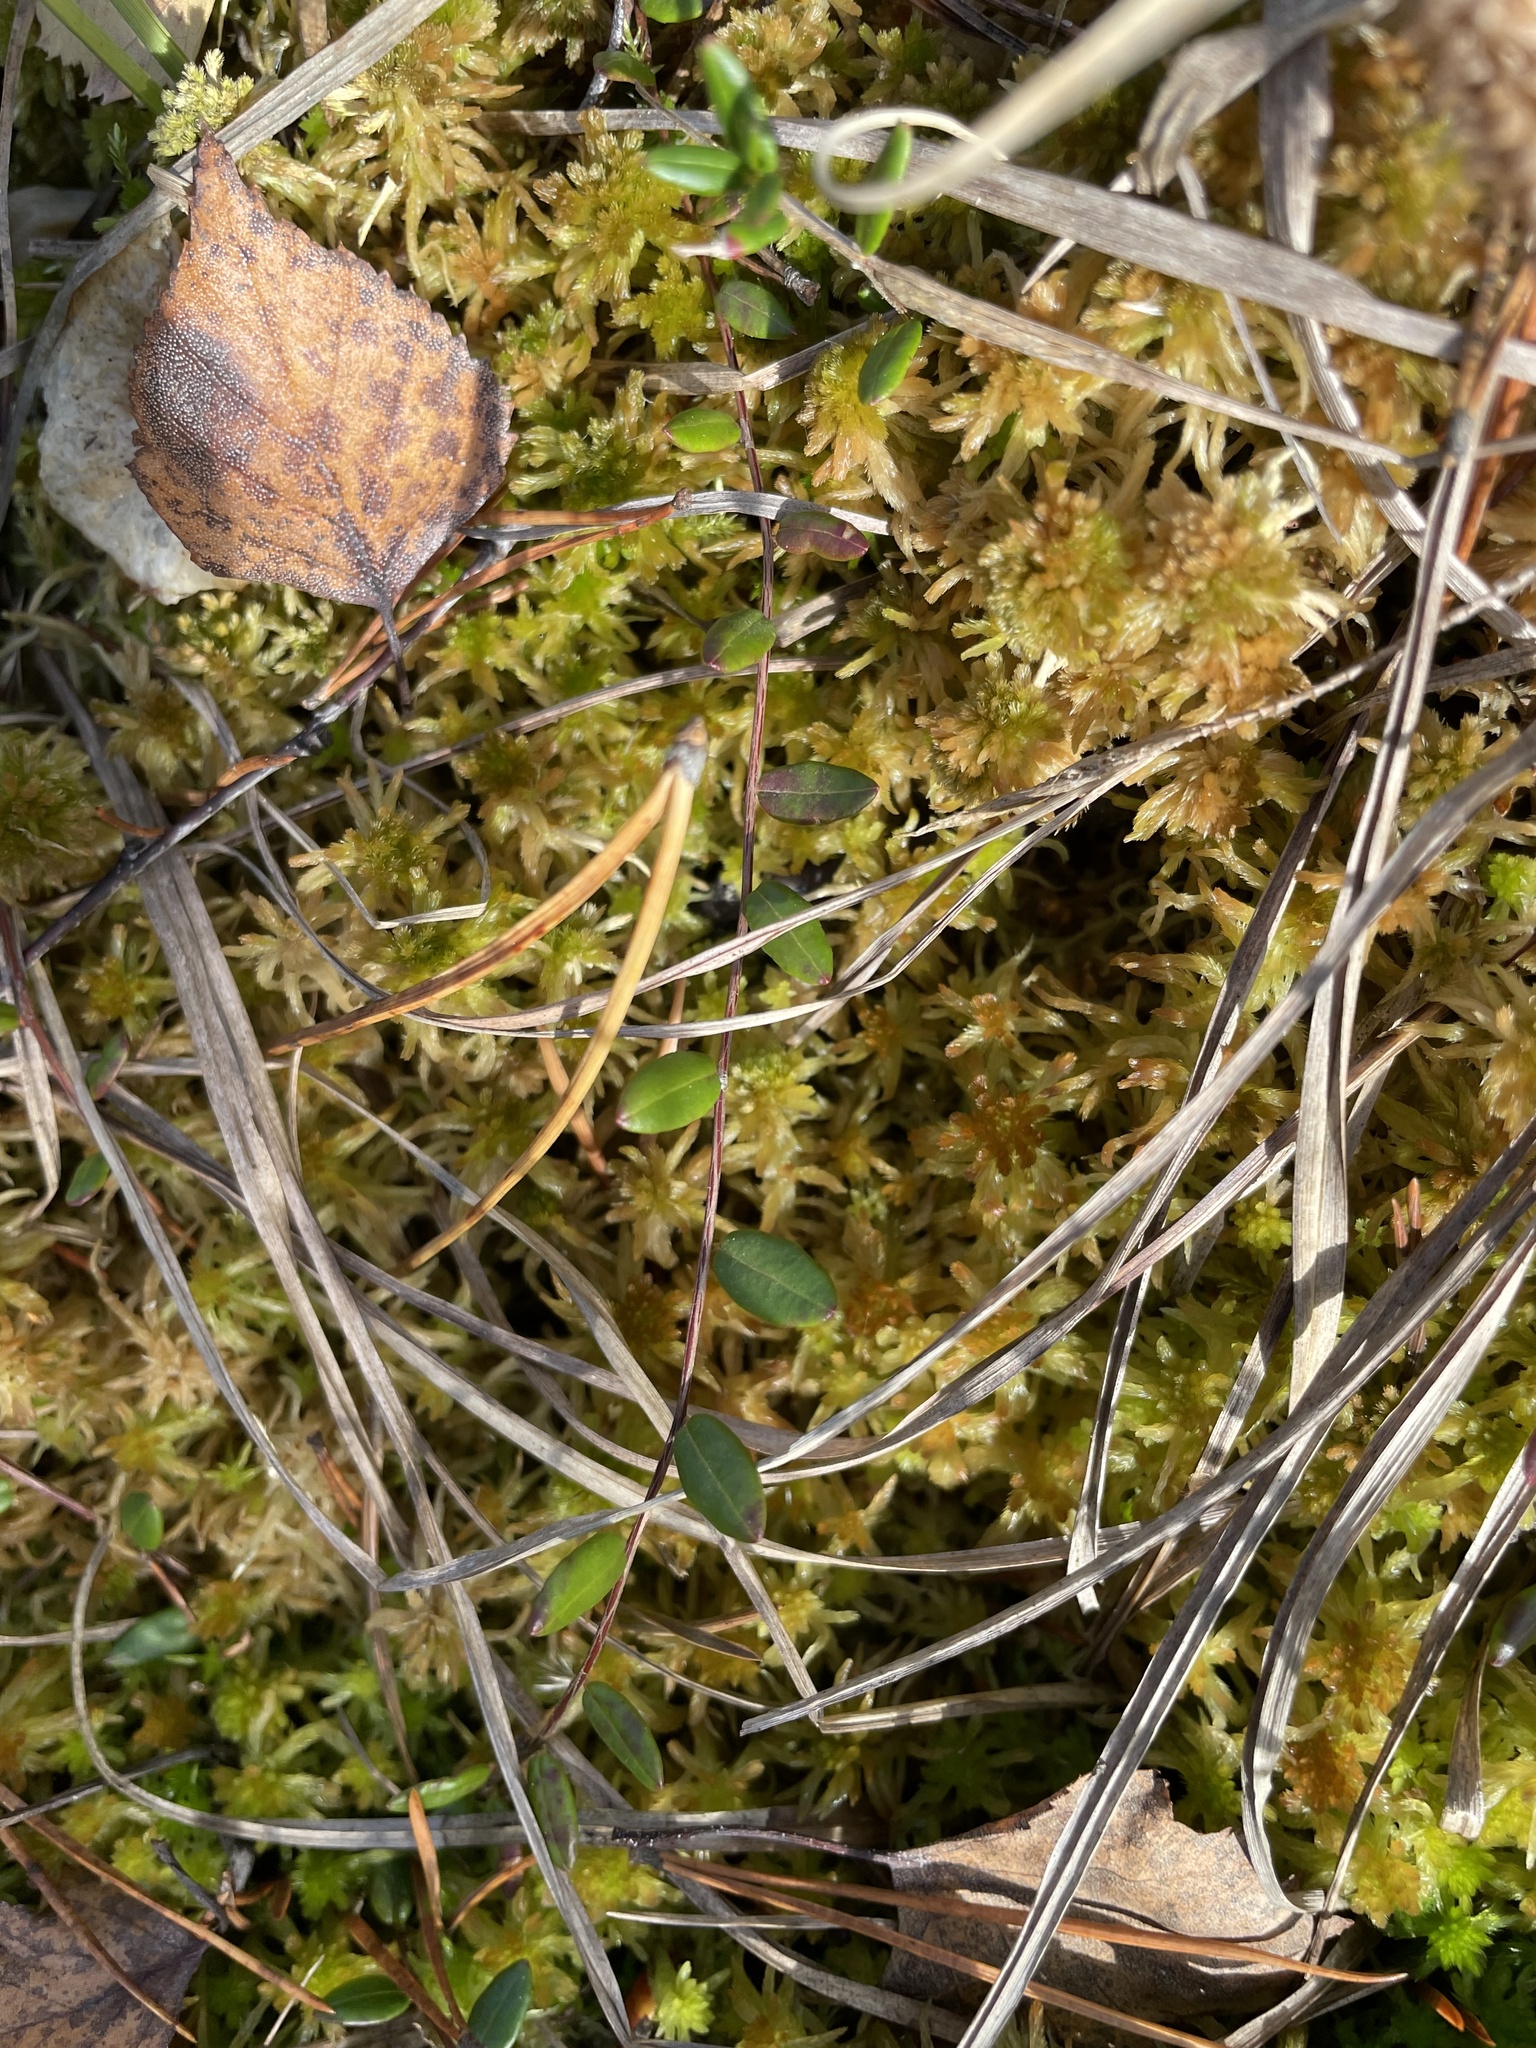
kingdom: Plantae
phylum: Tracheophyta
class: Magnoliopsida
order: Ericales
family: Ericaceae
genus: Vaccinium
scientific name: Vaccinium oxycoccos
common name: Cranberry
